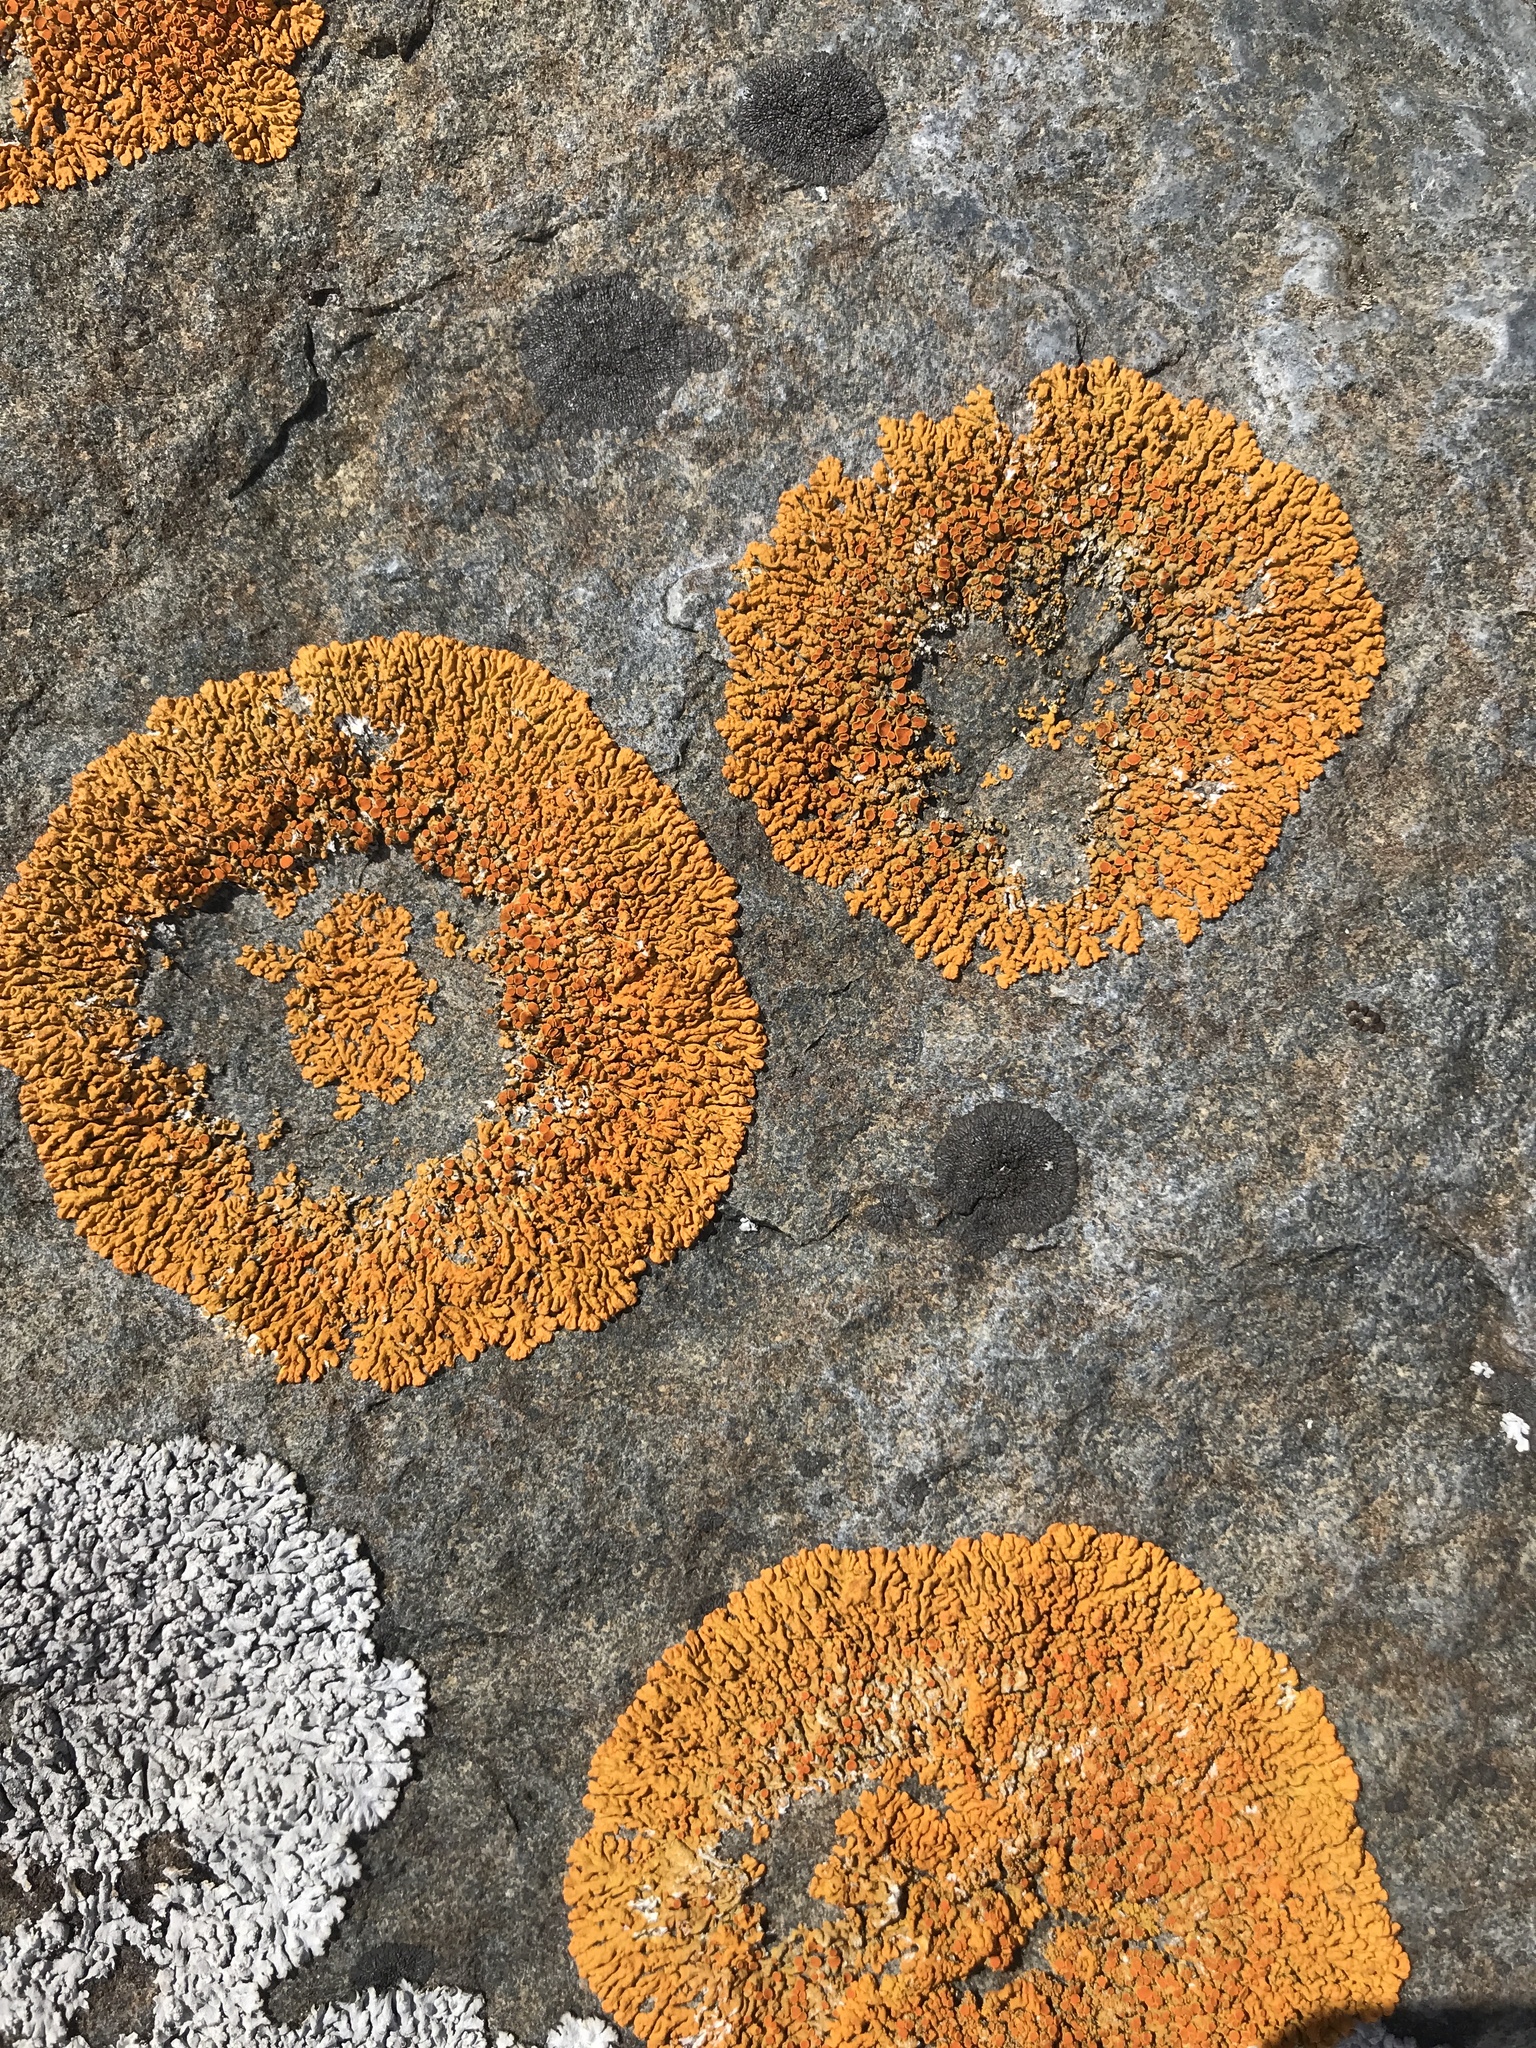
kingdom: Fungi
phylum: Ascomycota
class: Lecanoromycetes
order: Teloschistales
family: Teloschistaceae
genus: Xanthoria
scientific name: Xanthoria elegans
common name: Elegant sunburst lichen
